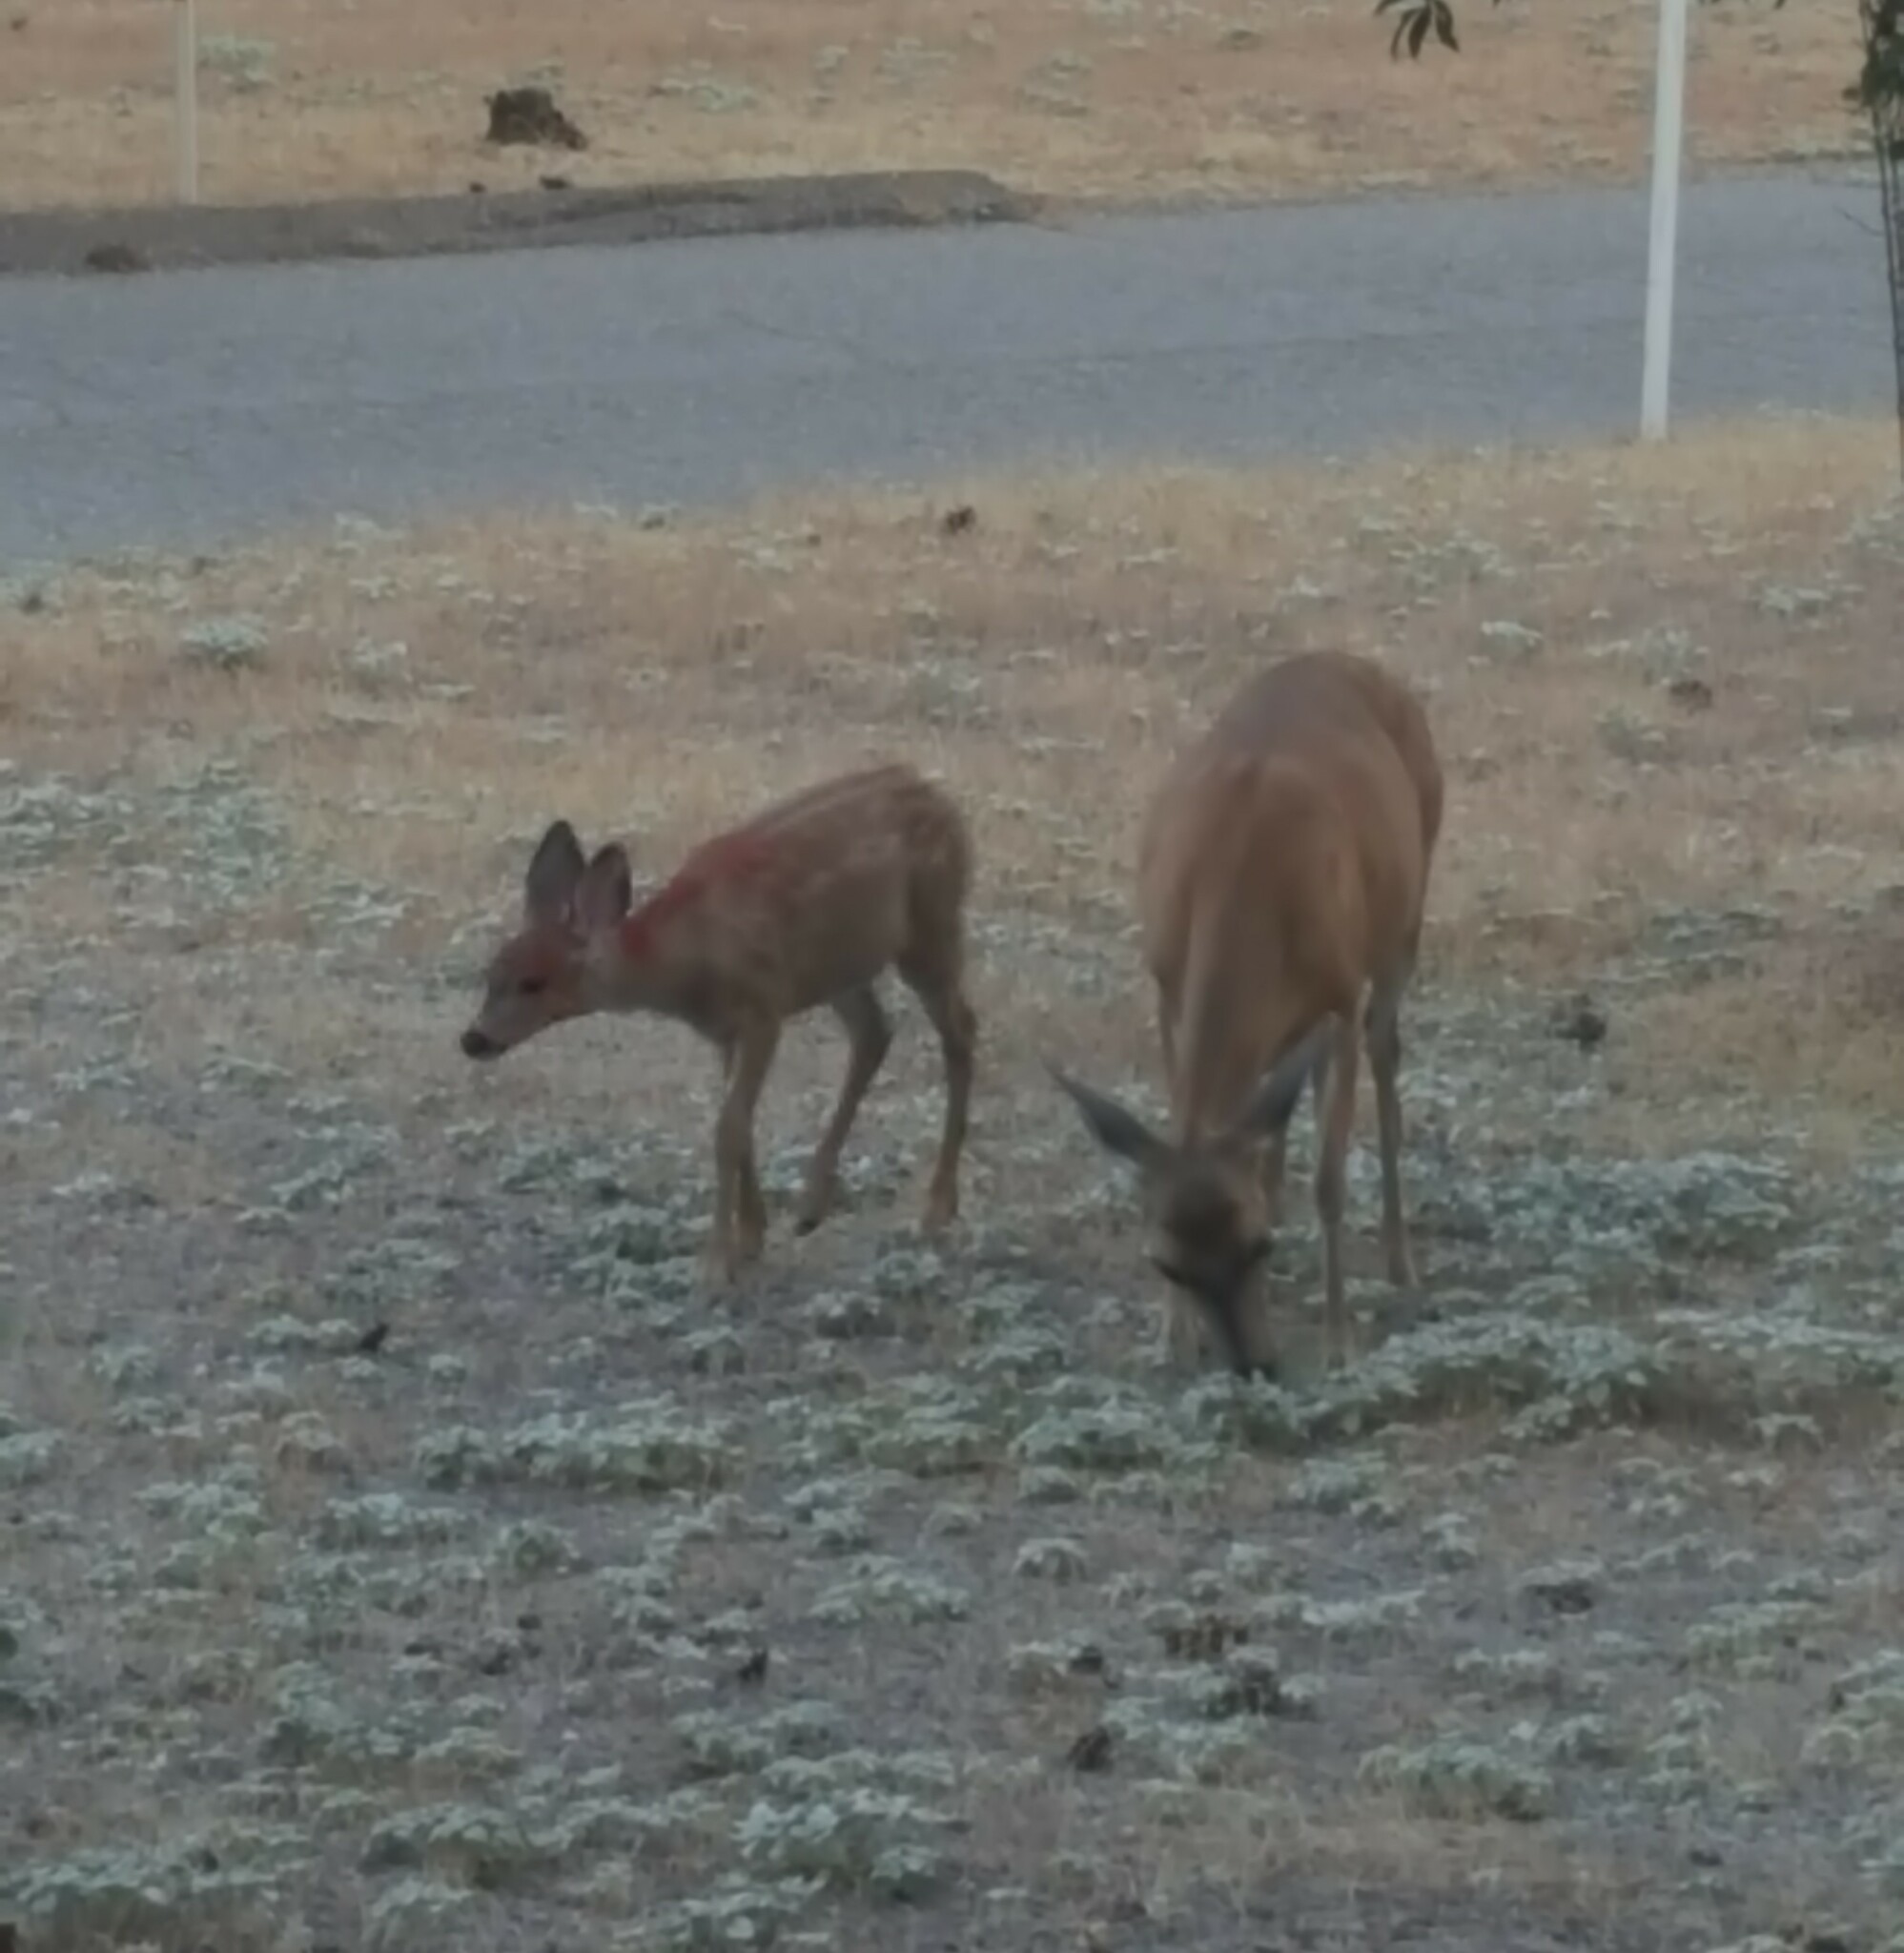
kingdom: Animalia
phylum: Chordata
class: Mammalia
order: Artiodactyla
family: Cervidae
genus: Odocoileus
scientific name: Odocoileus hemionus
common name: Mule deer
